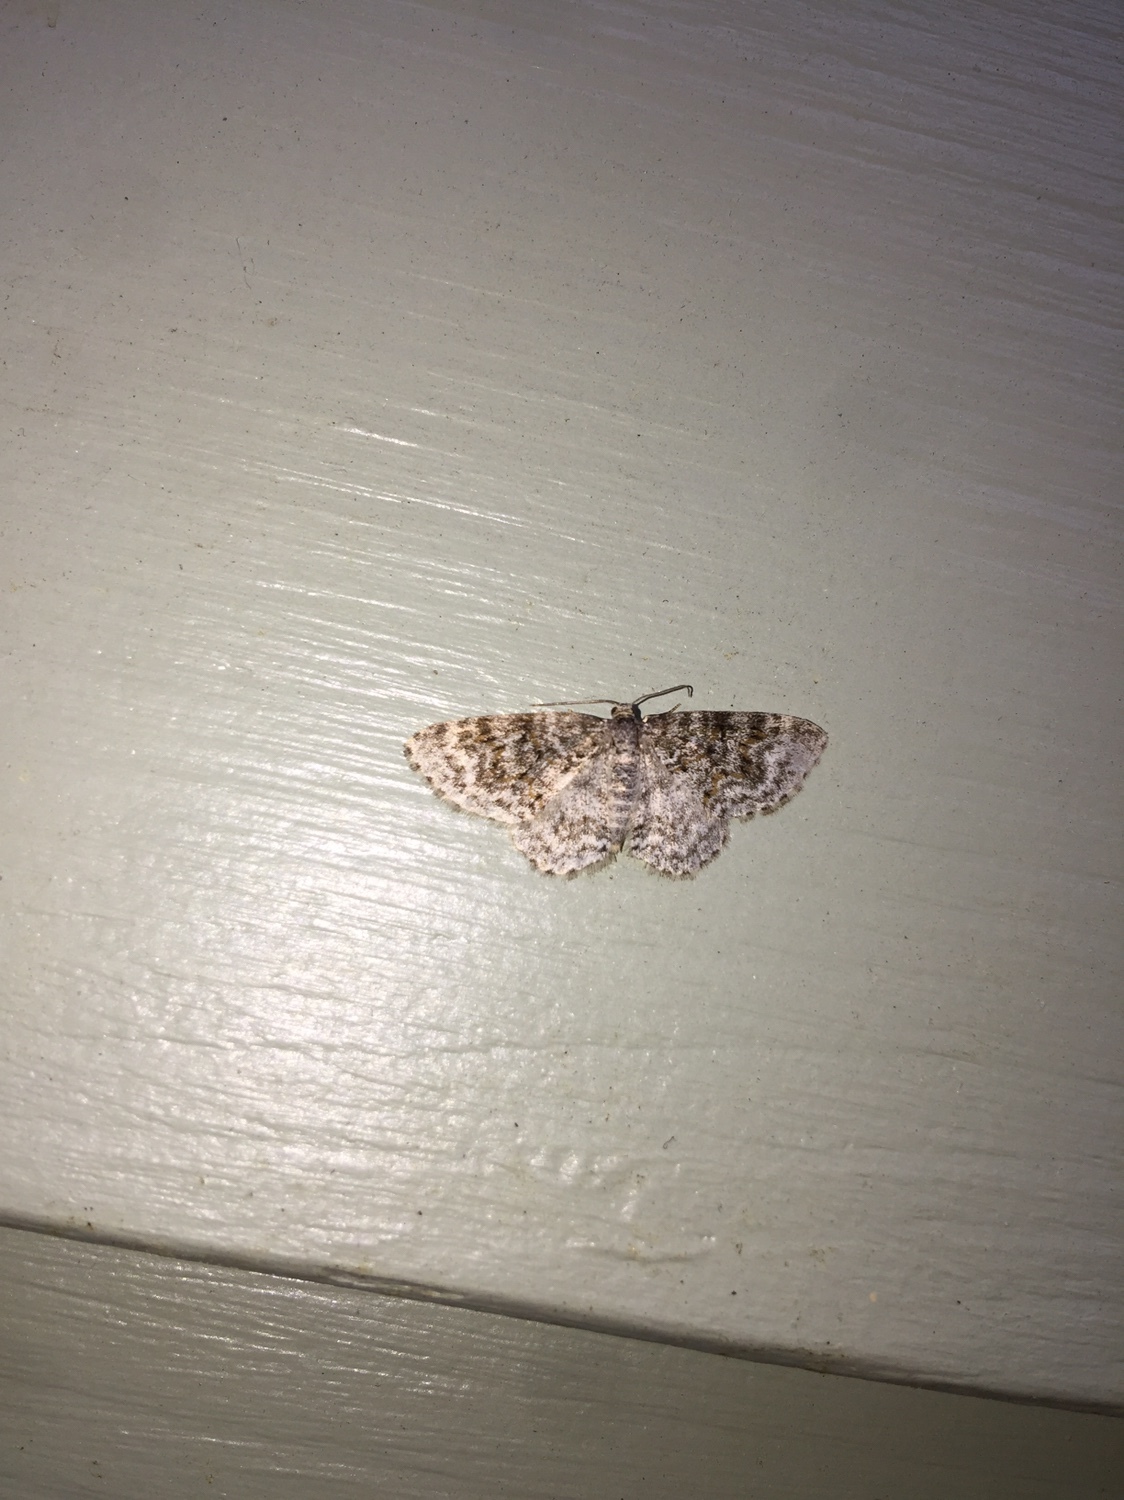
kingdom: Animalia
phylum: Arthropoda
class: Insecta
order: Lepidoptera
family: Geometridae
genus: Hydrelia
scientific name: Hydrelia inornata
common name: Unadorned carpet moth
